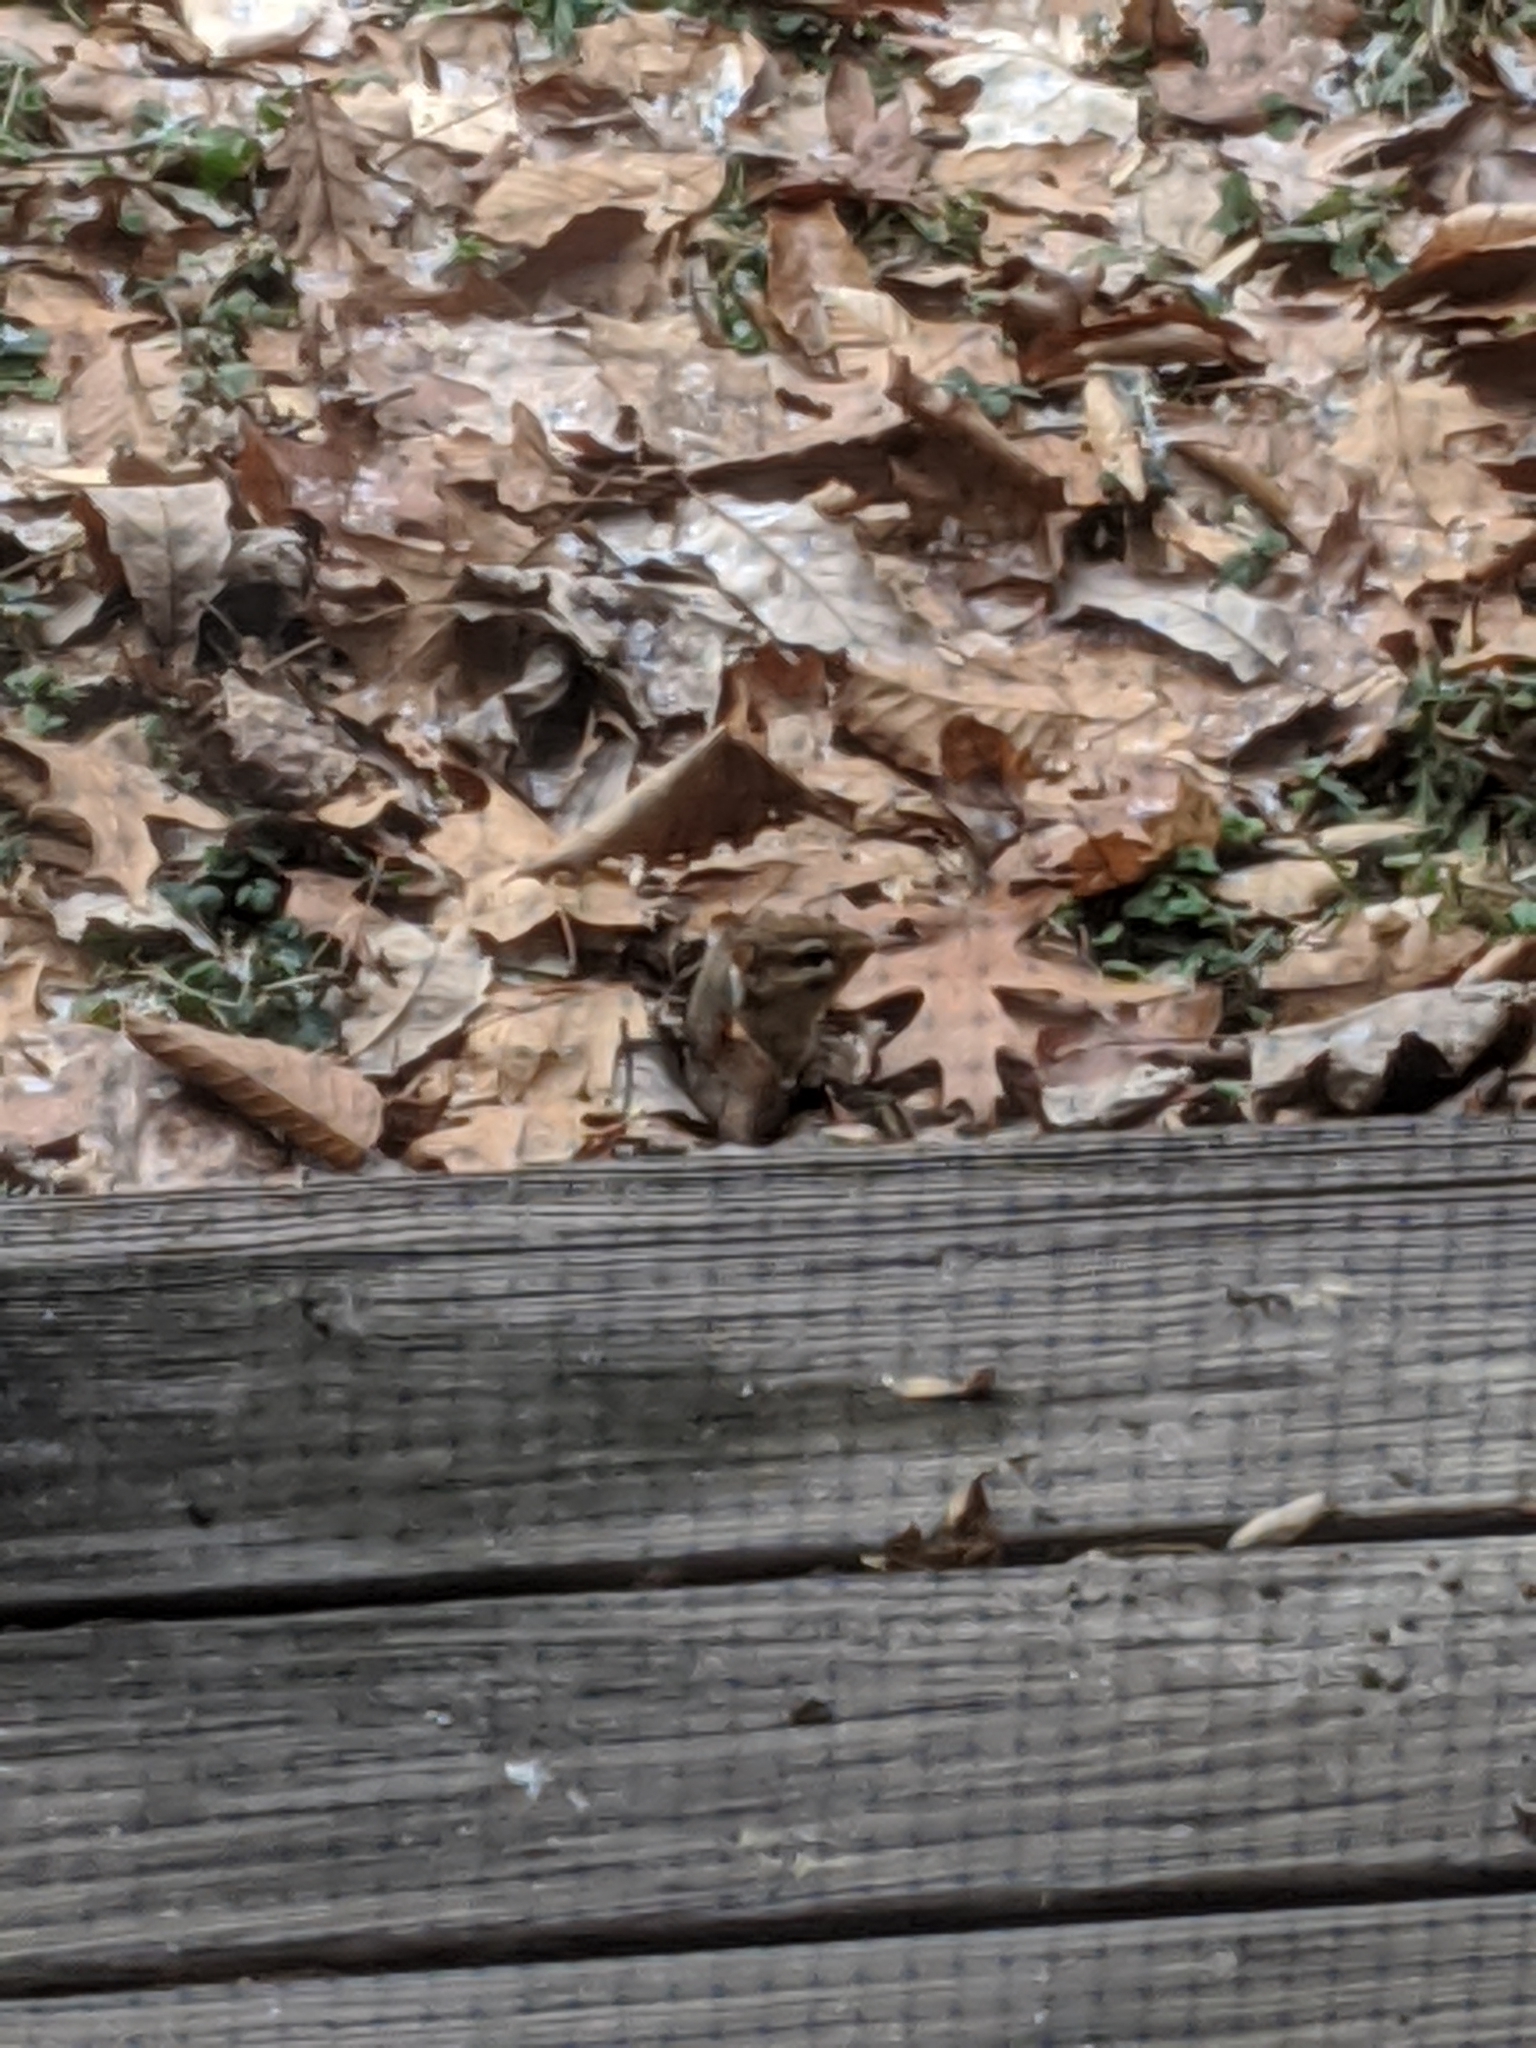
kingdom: Animalia
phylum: Chordata
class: Mammalia
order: Rodentia
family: Sciuridae
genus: Tamias
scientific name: Tamias striatus
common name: Eastern chipmunk
